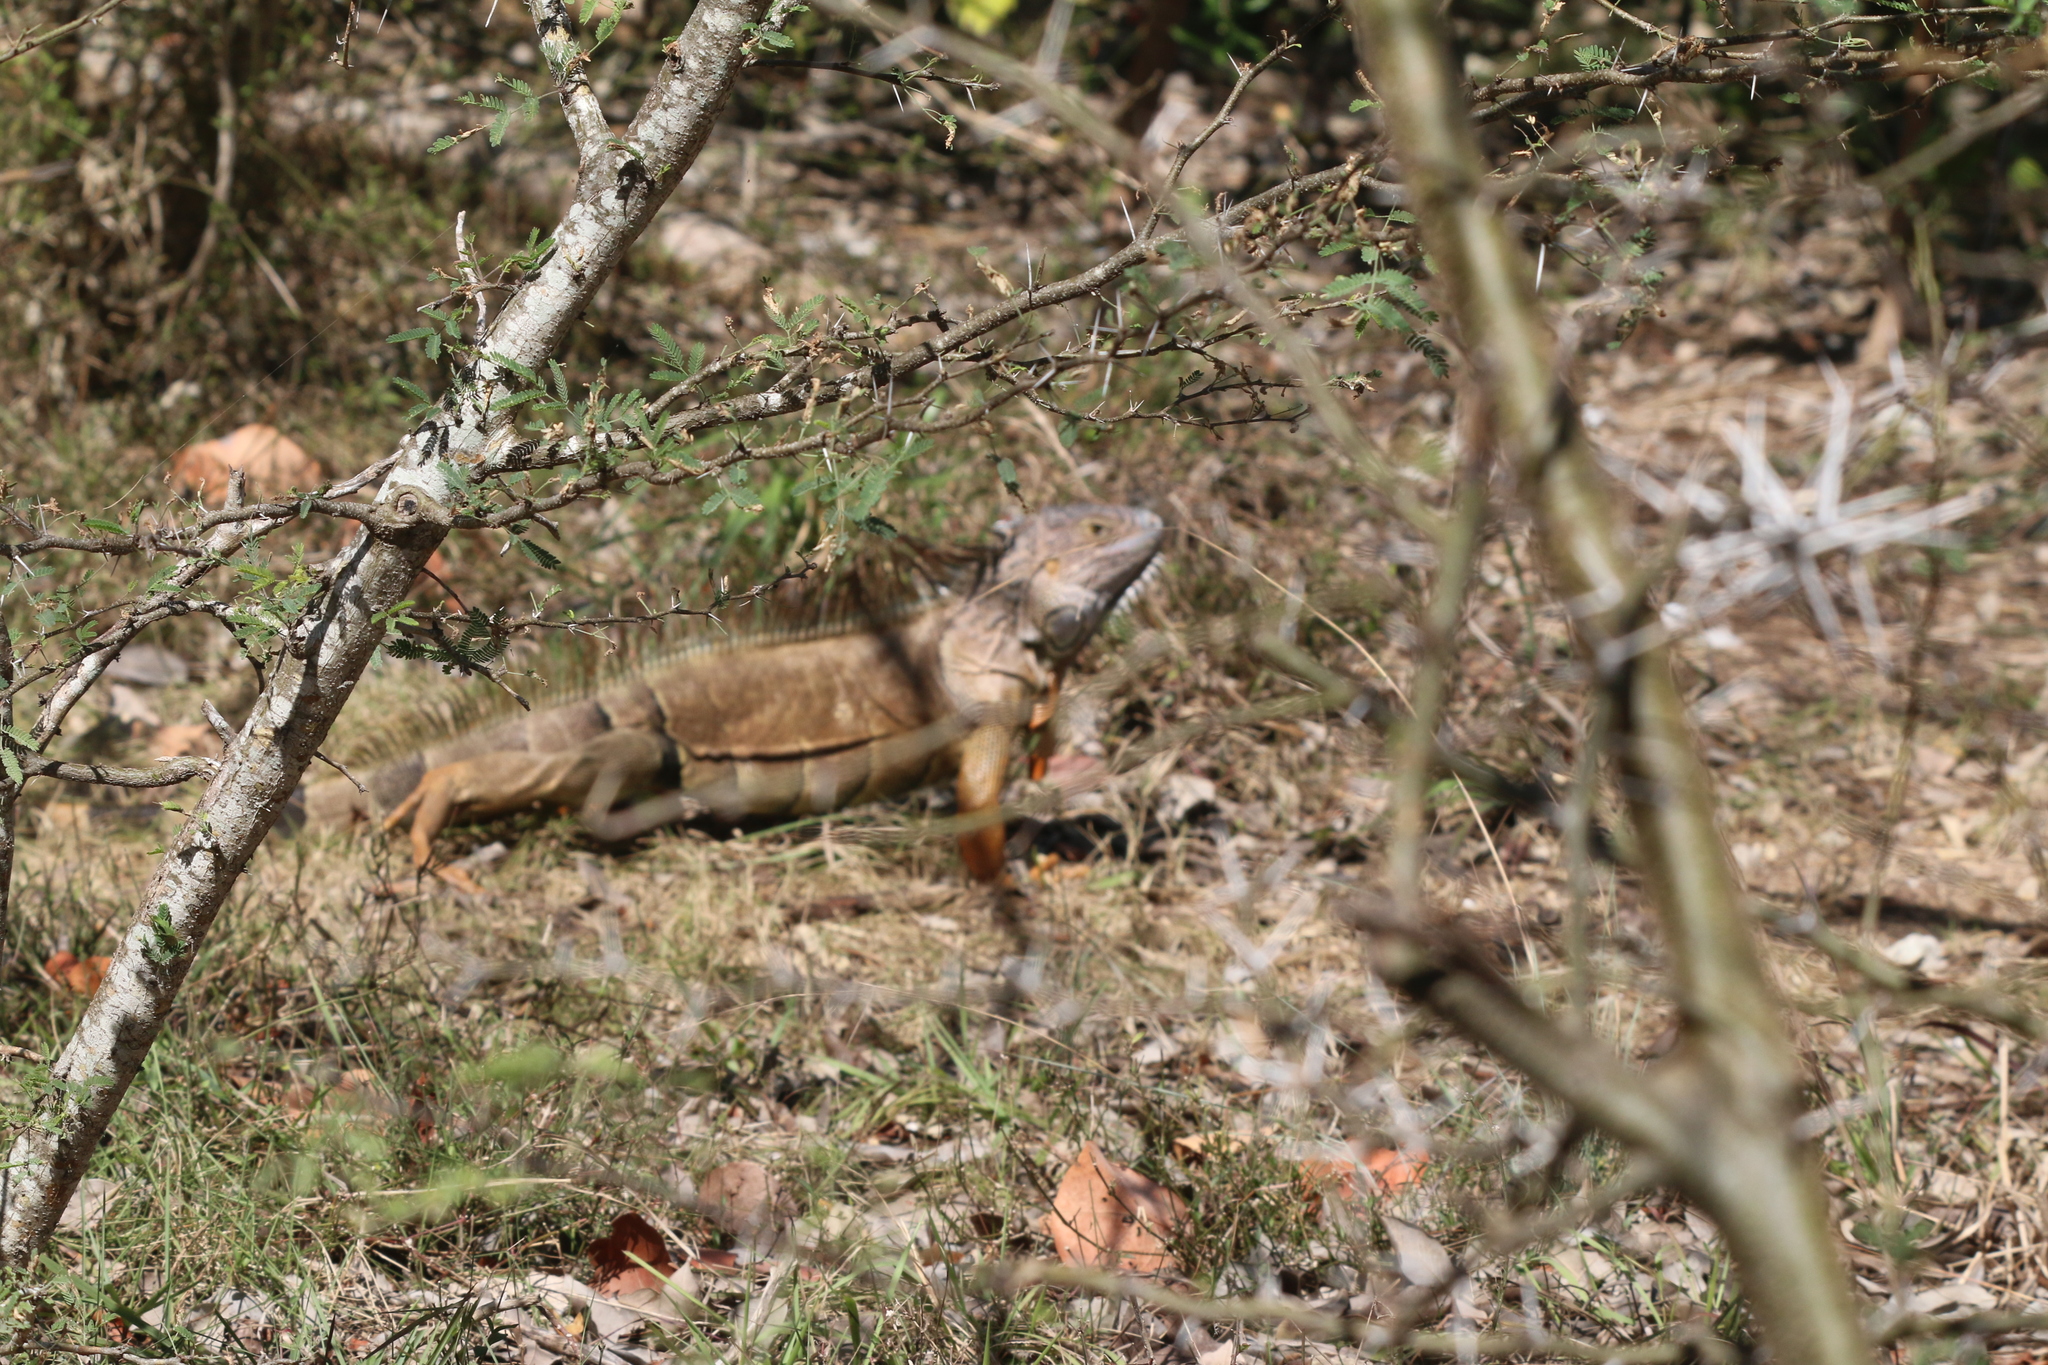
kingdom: Animalia
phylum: Chordata
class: Squamata
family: Iguanidae
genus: Iguana
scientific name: Iguana iguana
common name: Green iguana
